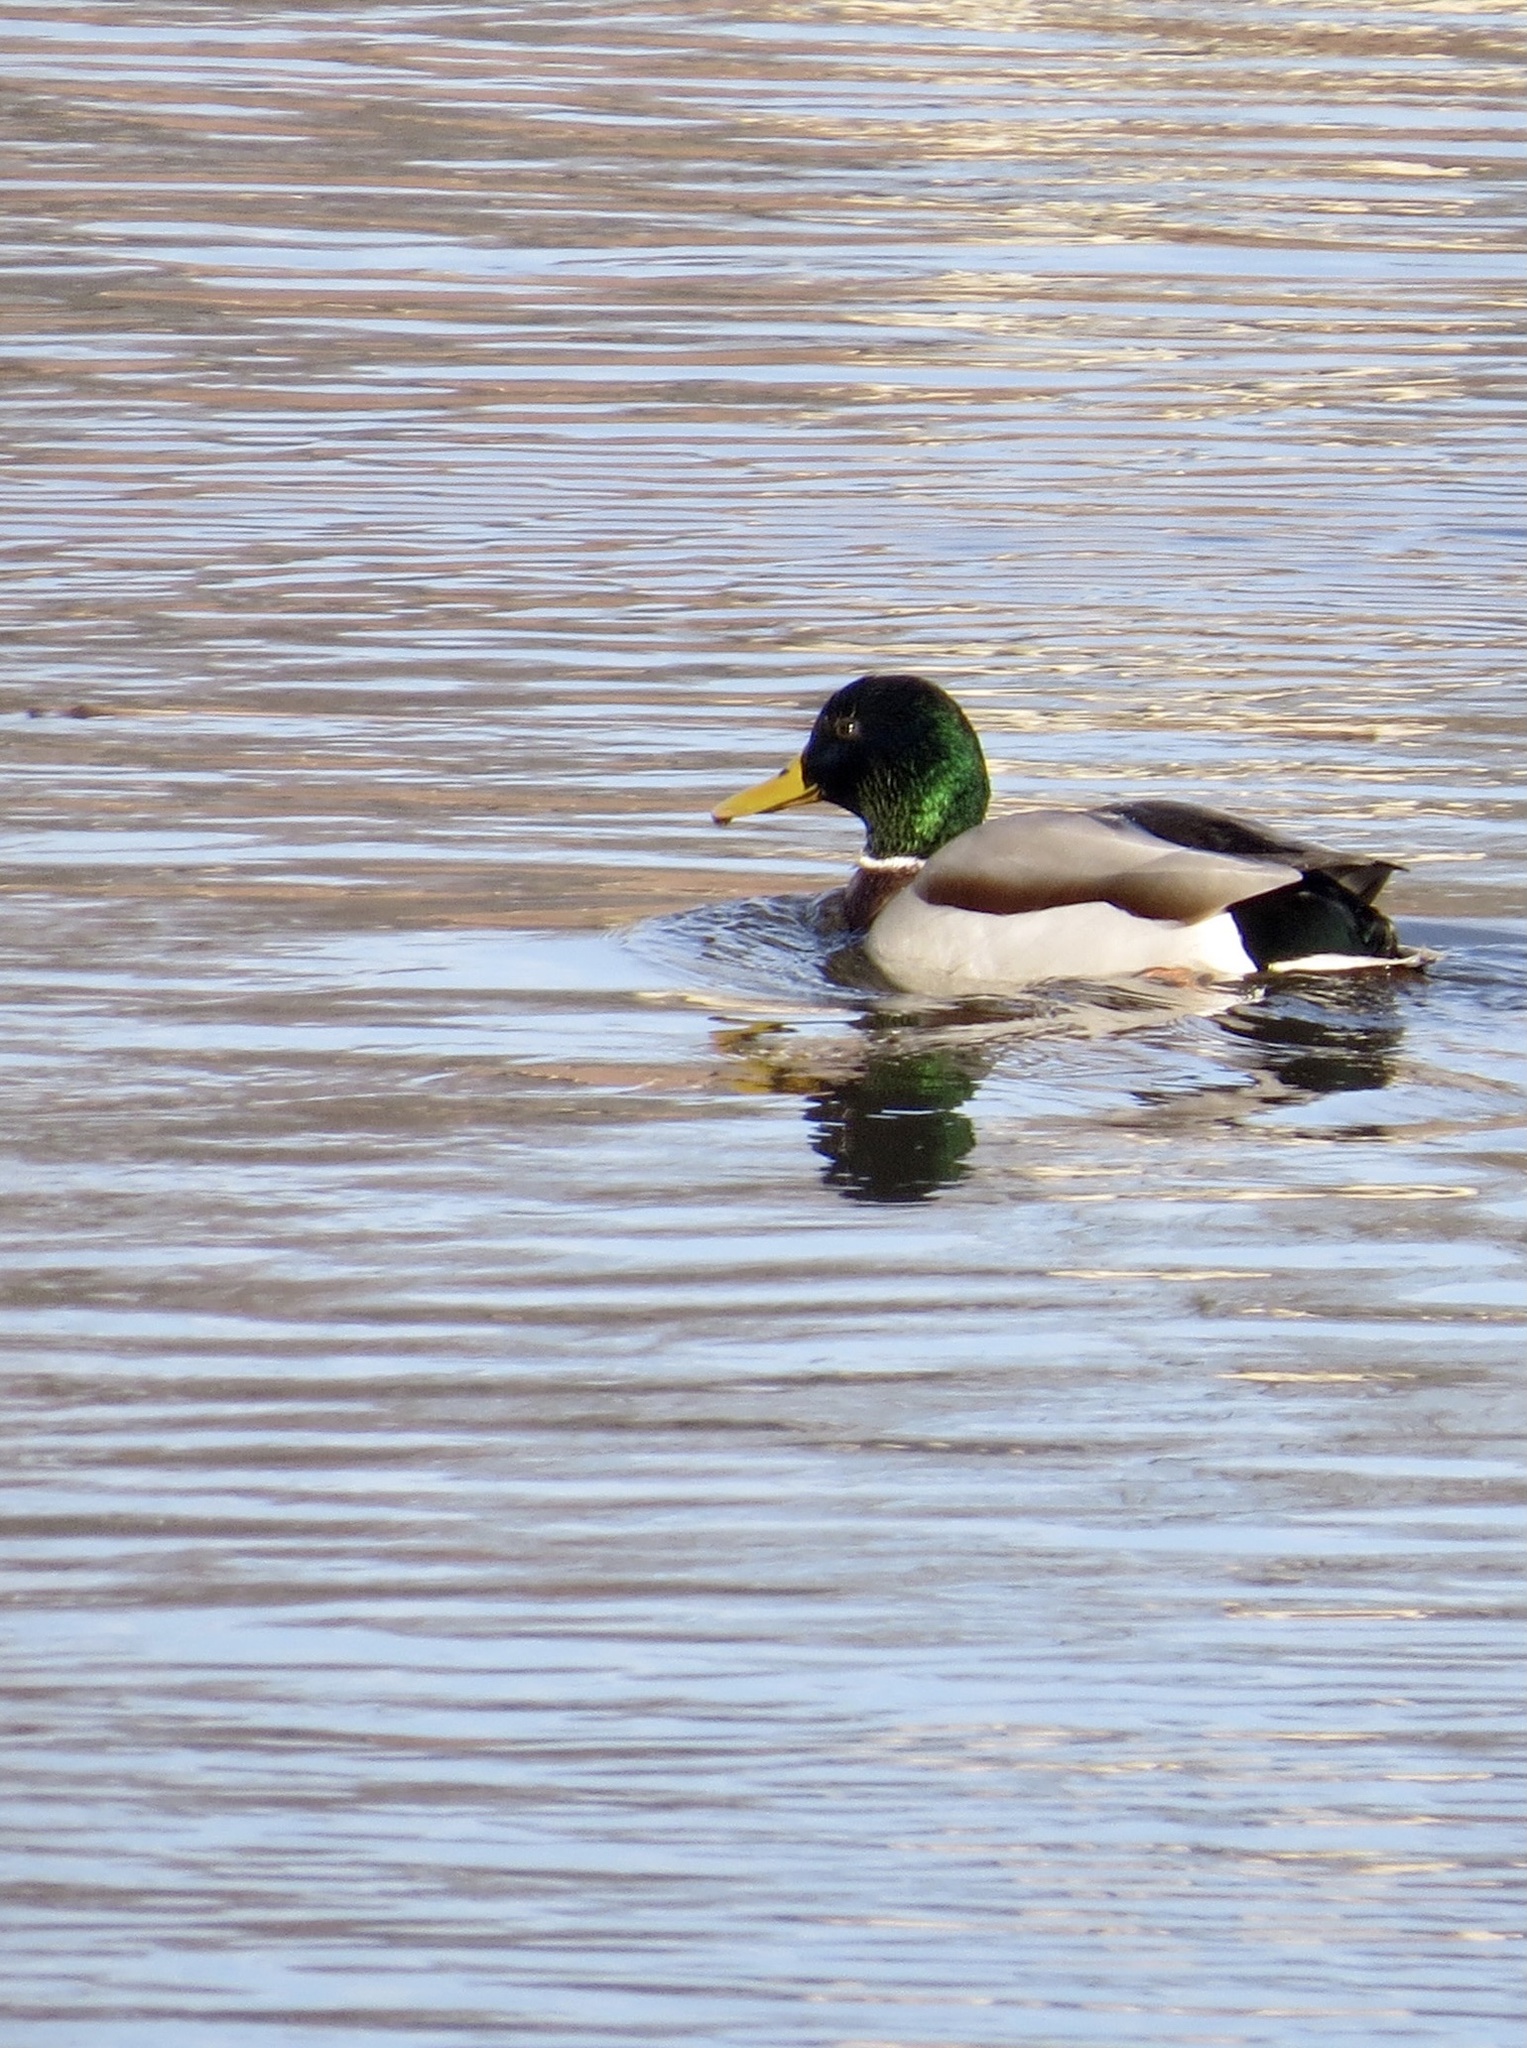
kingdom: Animalia
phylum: Chordata
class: Aves
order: Anseriformes
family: Anatidae
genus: Anas
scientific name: Anas platyrhynchos
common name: Mallard
